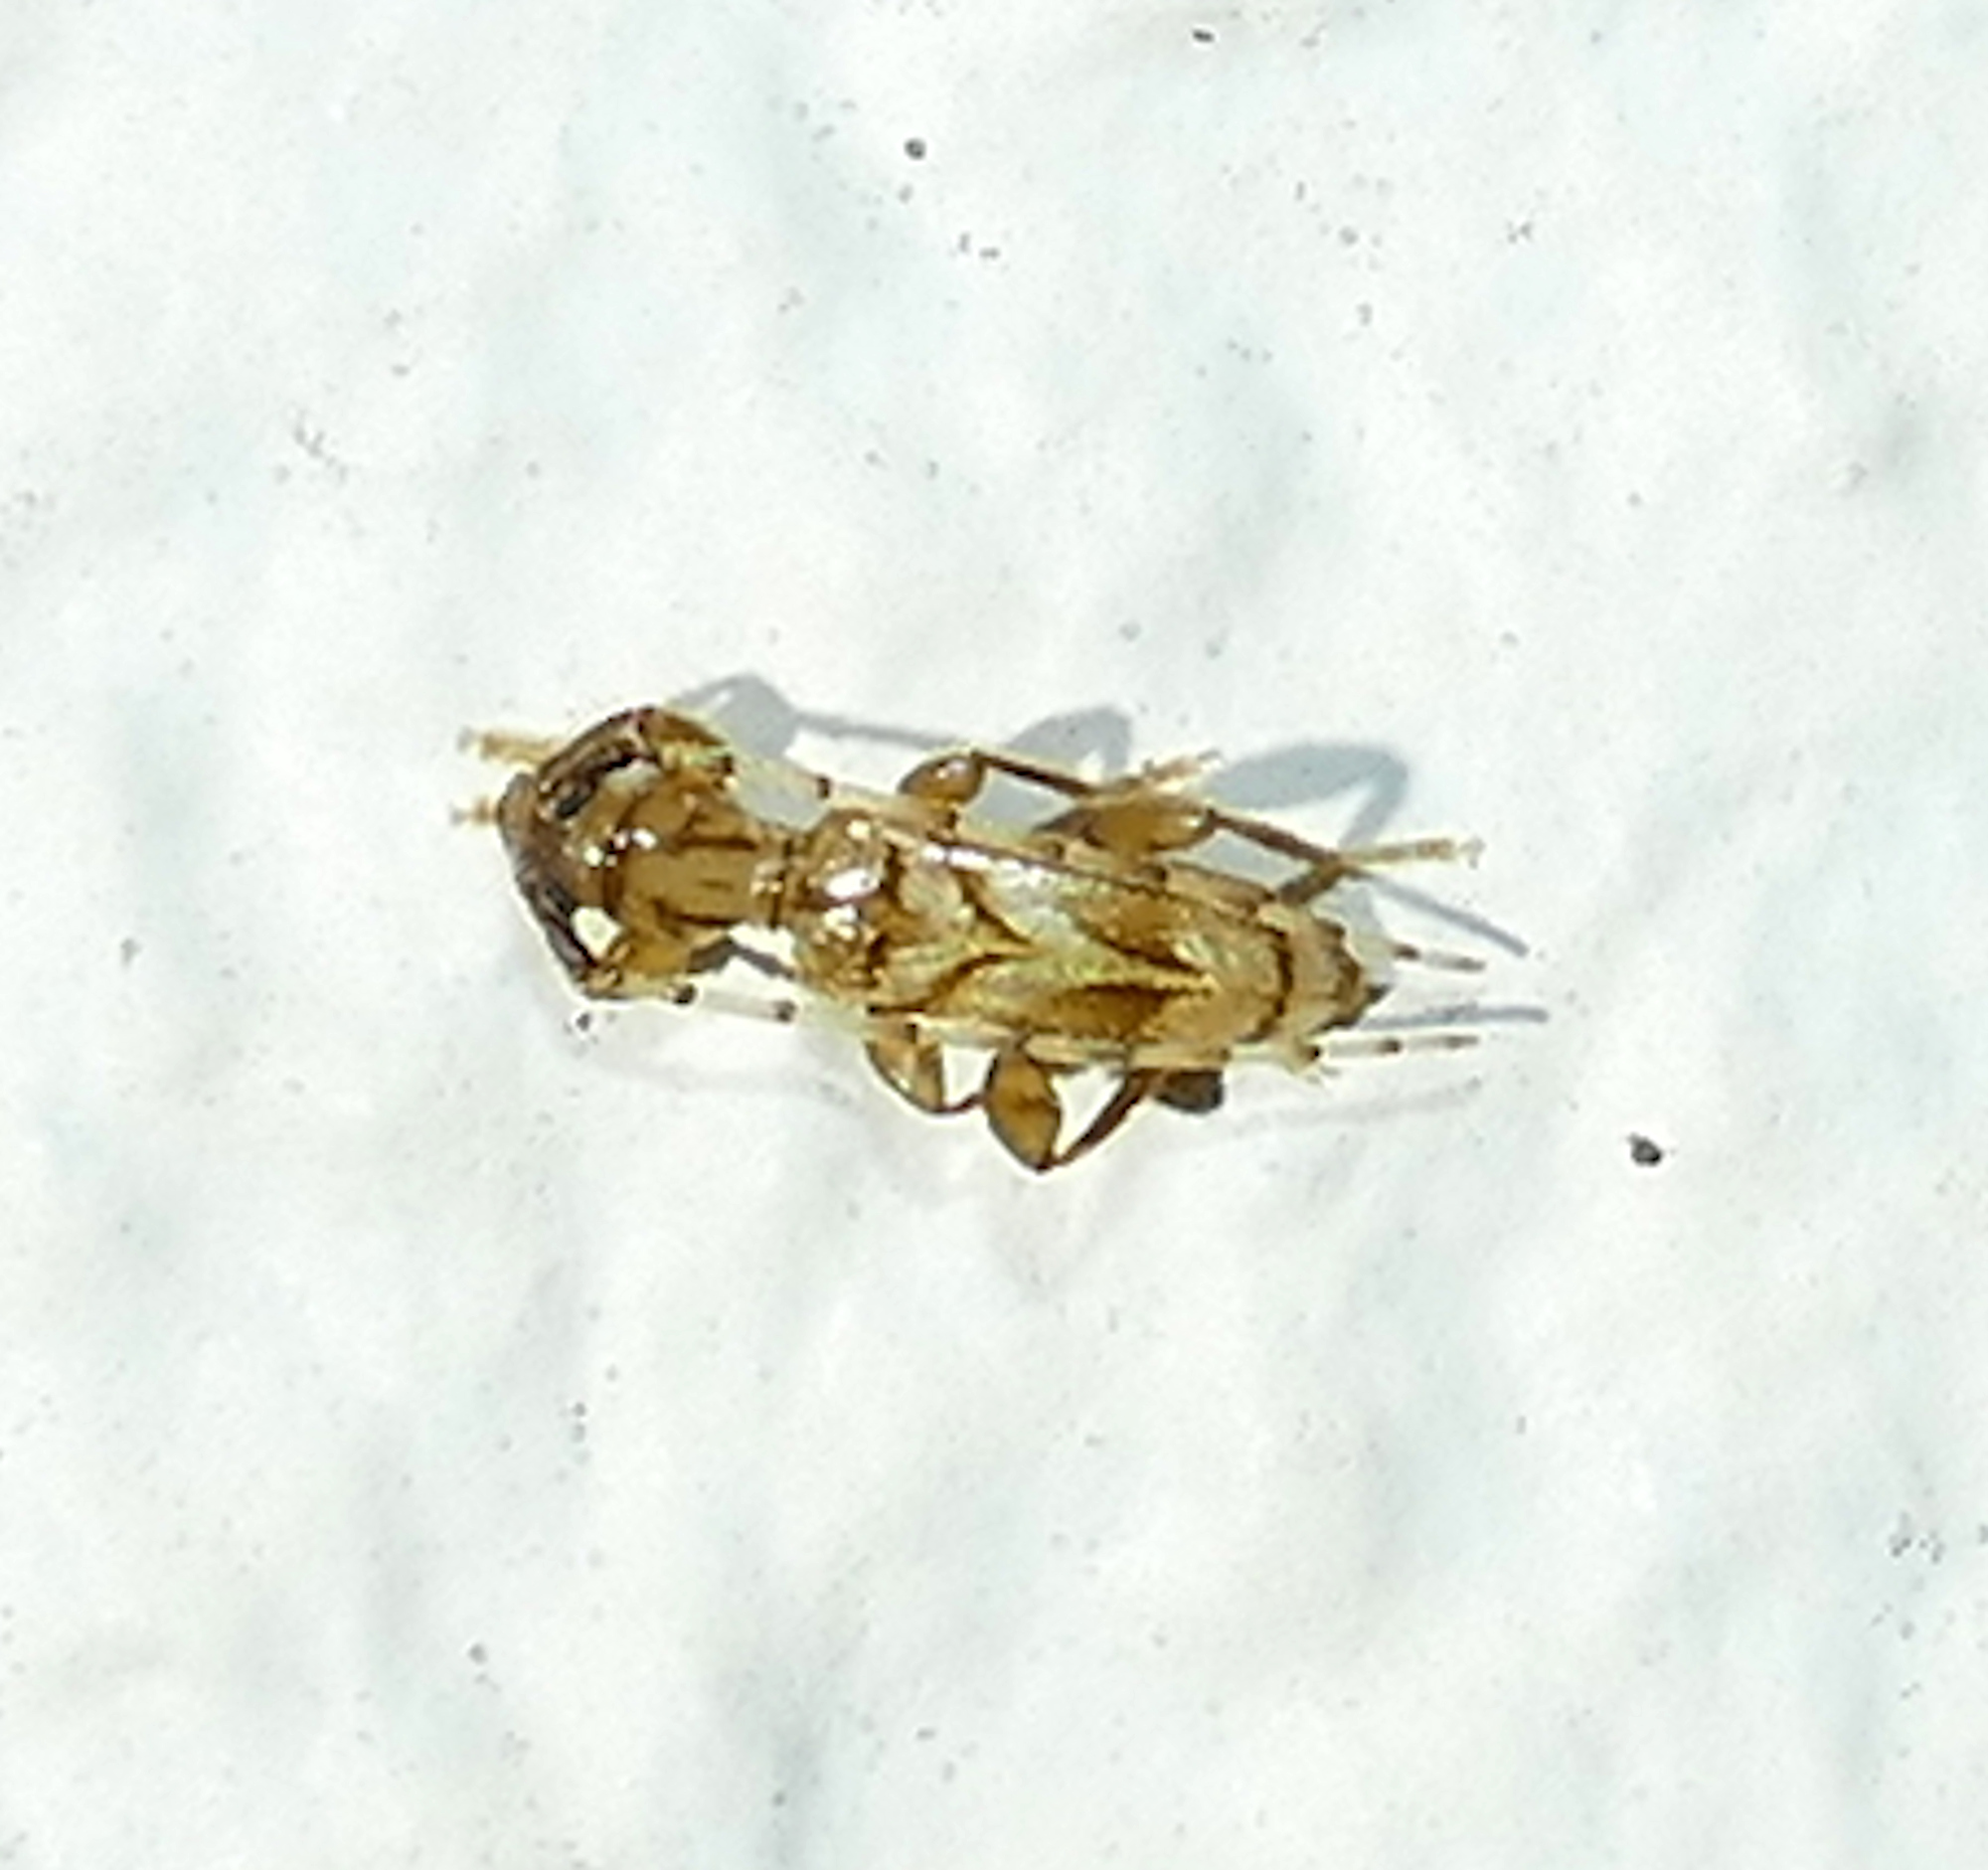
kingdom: Animalia
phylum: Arthropoda
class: Insecta
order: Coleoptera
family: Cerambycidae
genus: Obrium
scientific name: Obrium maculatum
